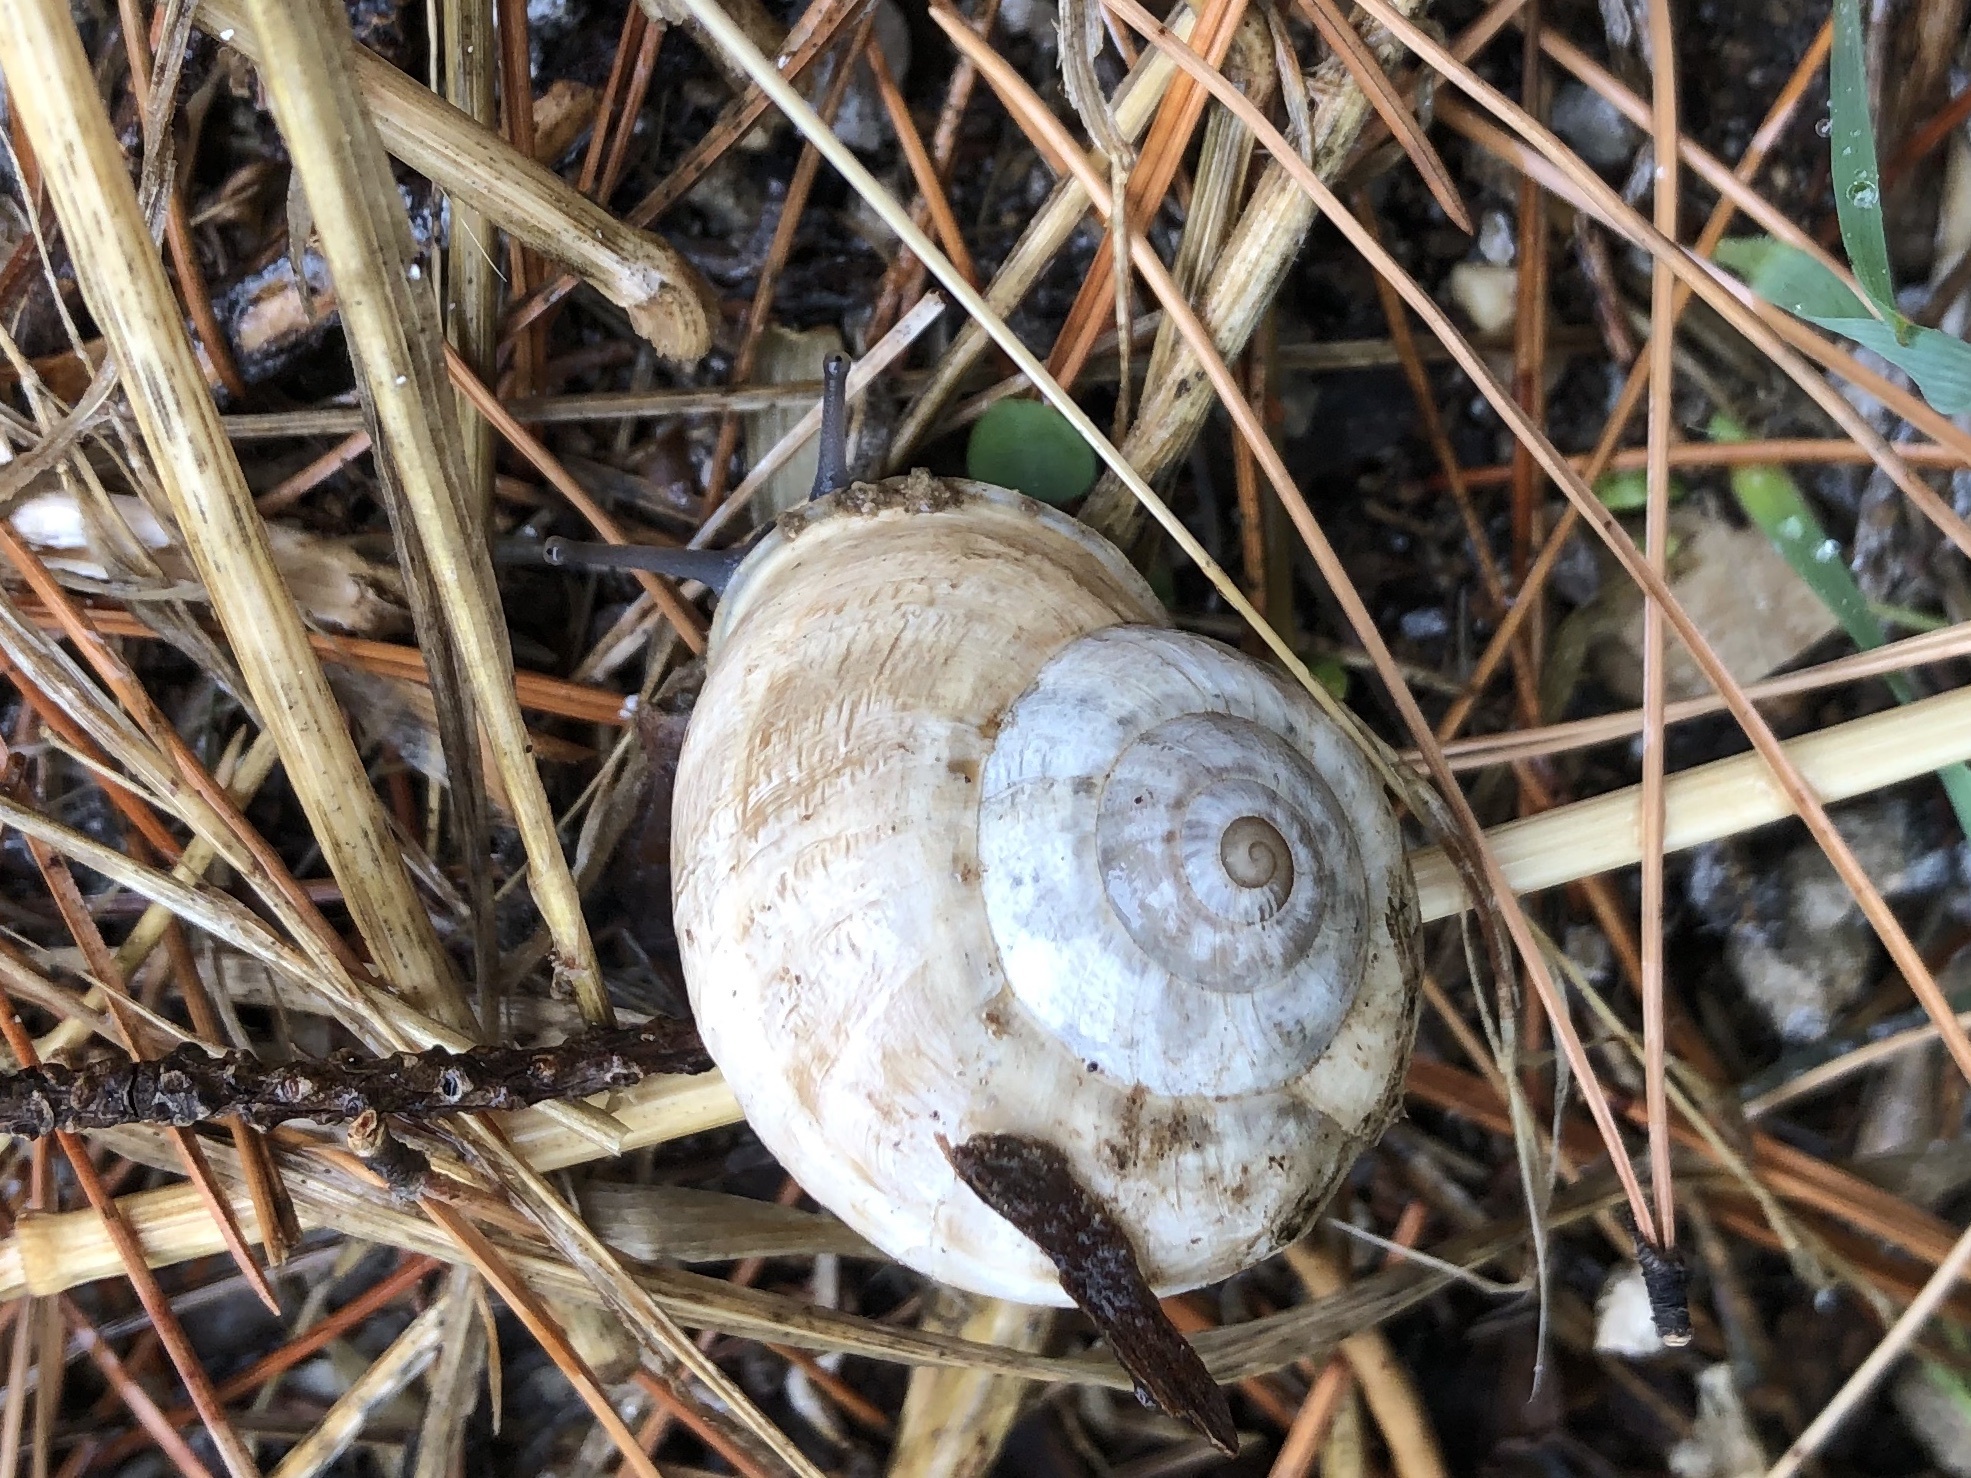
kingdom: Animalia
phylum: Mollusca
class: Gastropoda
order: Stylommatophora
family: Helicidae
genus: Eobania
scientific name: Eobania vermiculata
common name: Chocolateband snail
